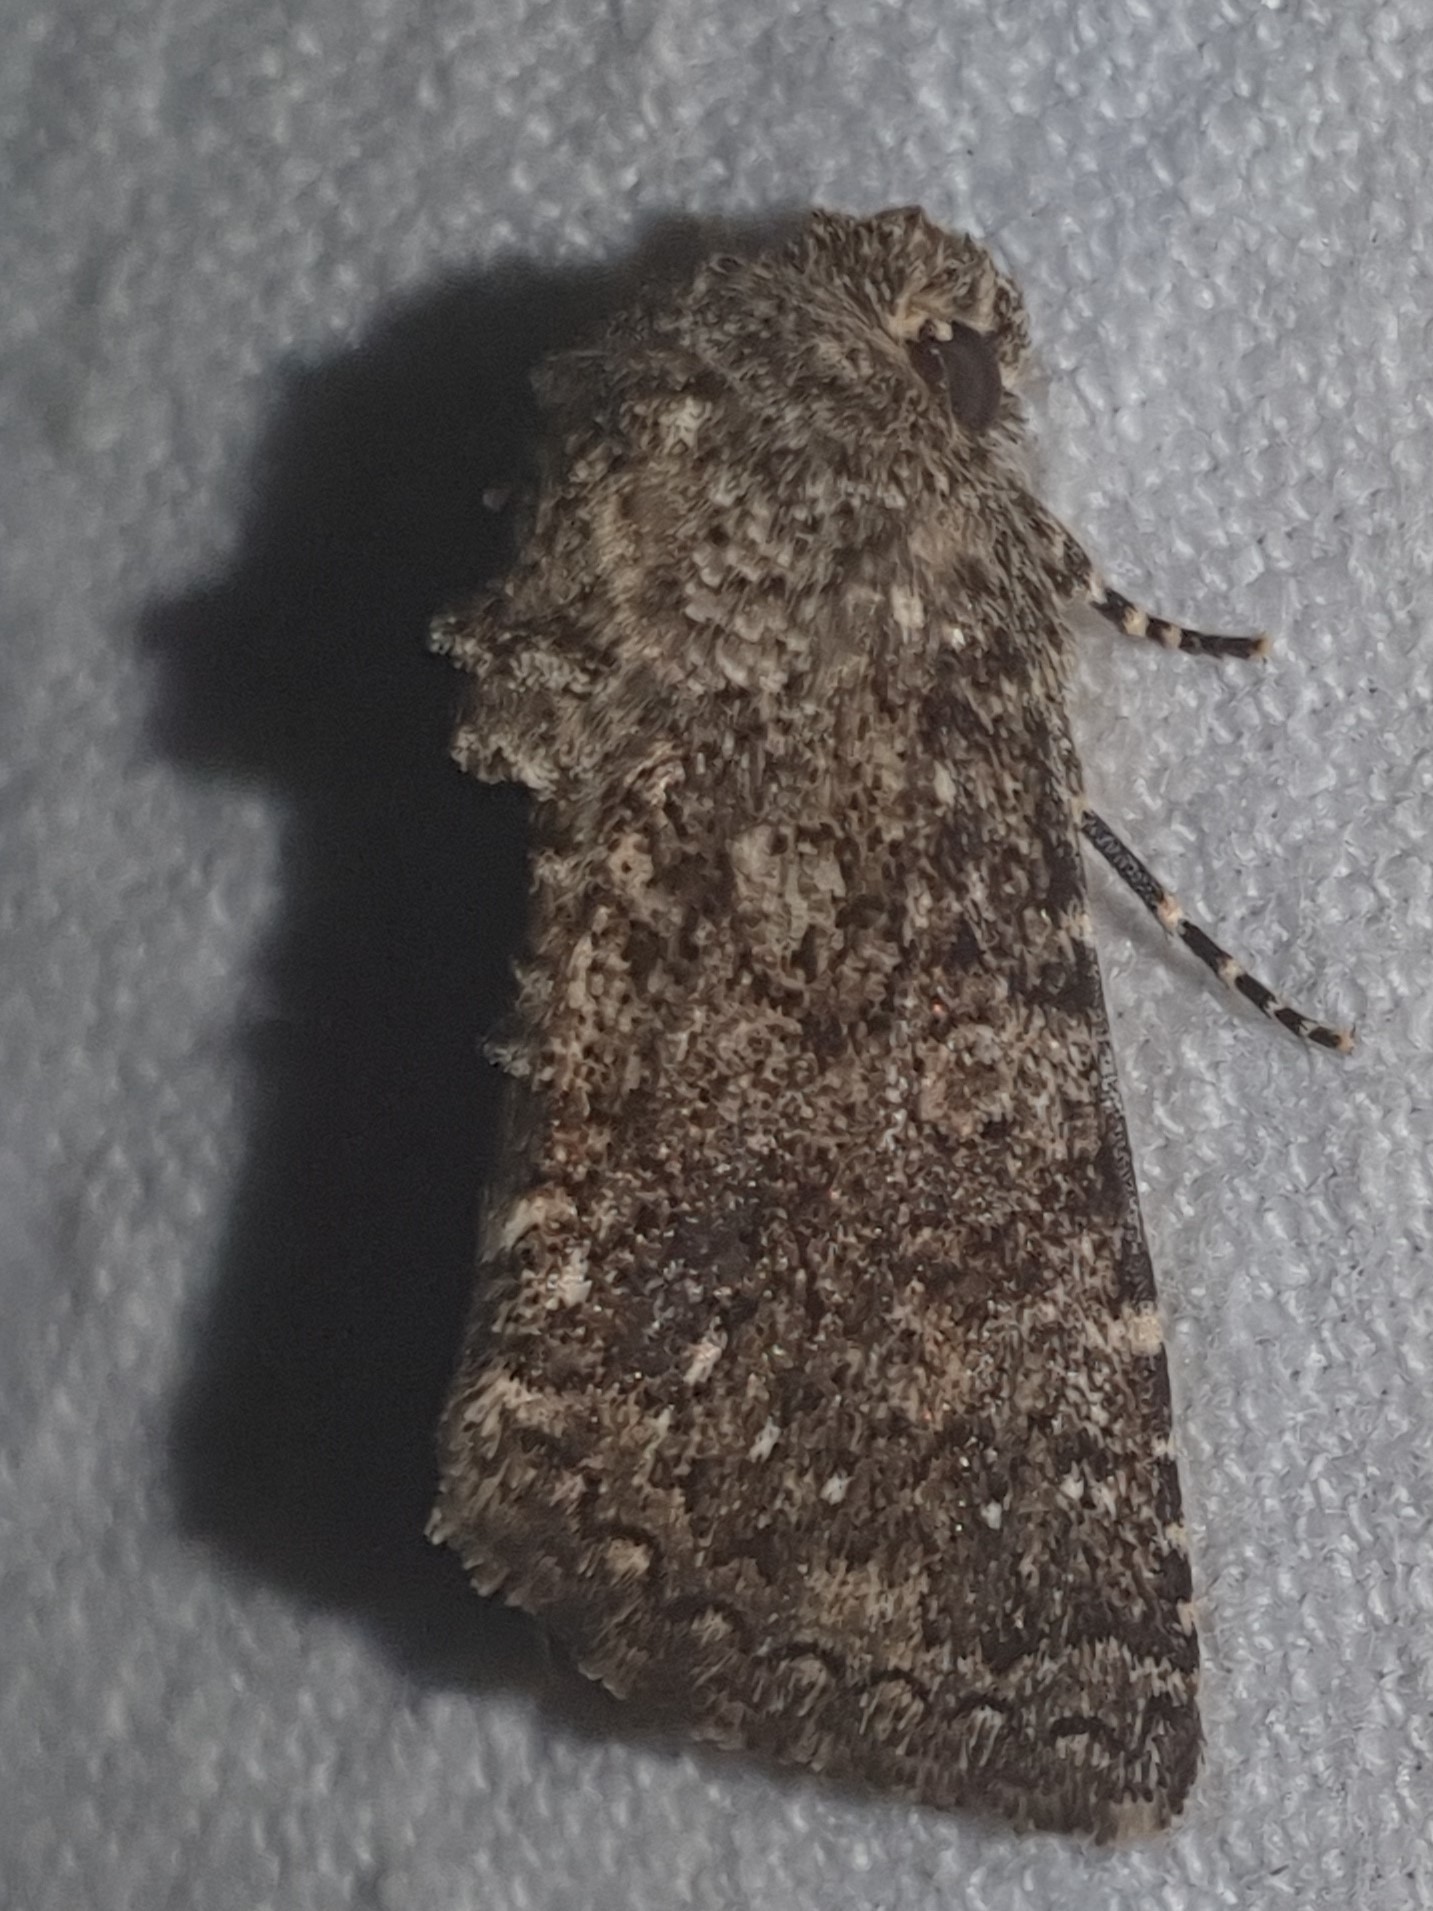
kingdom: Animalia
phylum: Arthropoda
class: Insecta
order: Lepidoptera
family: Noctuidae
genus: Recoropha
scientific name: Recoropha canteneri
